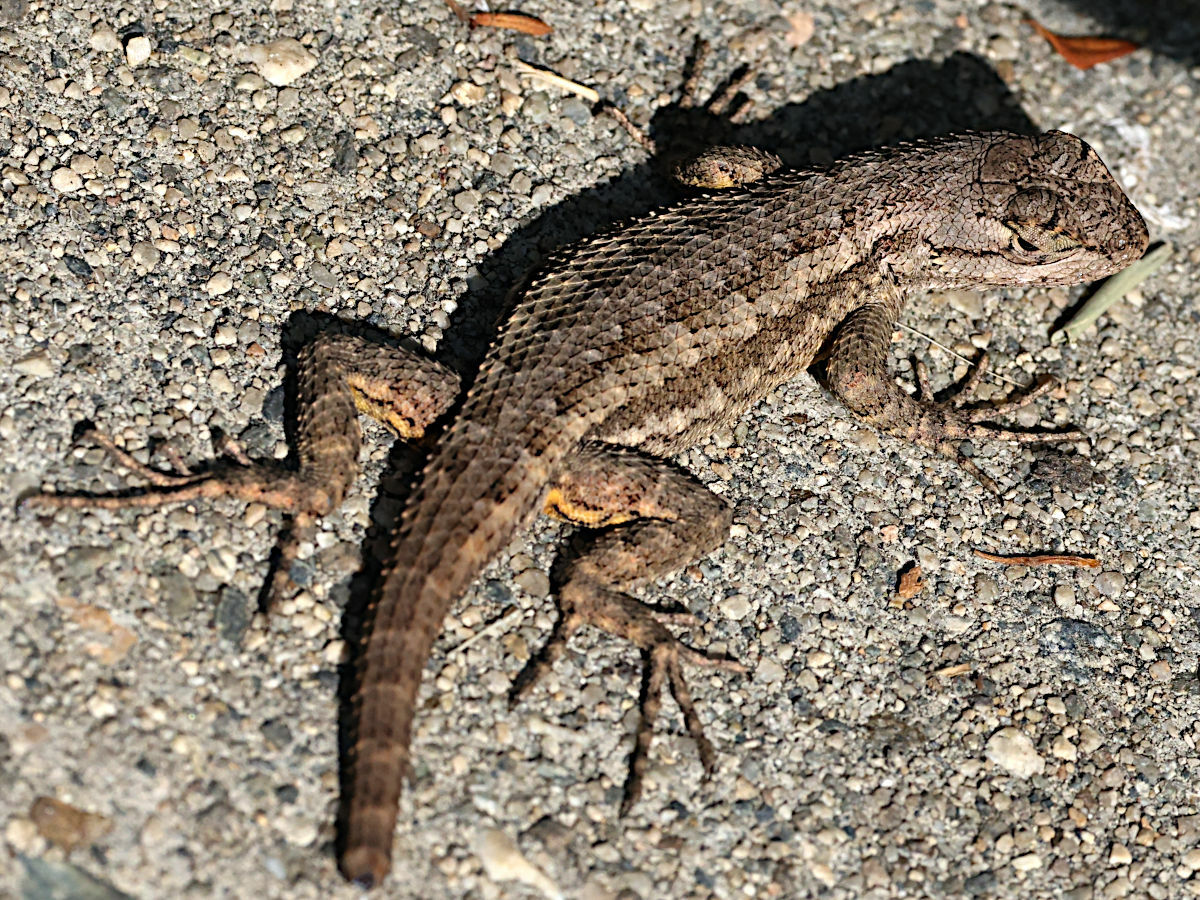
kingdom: Animalia
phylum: Chordata
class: Squamata
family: Phrynosomatidae
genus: Sceloporus
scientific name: Sceloporus occidentalis
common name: Western fence lizard
